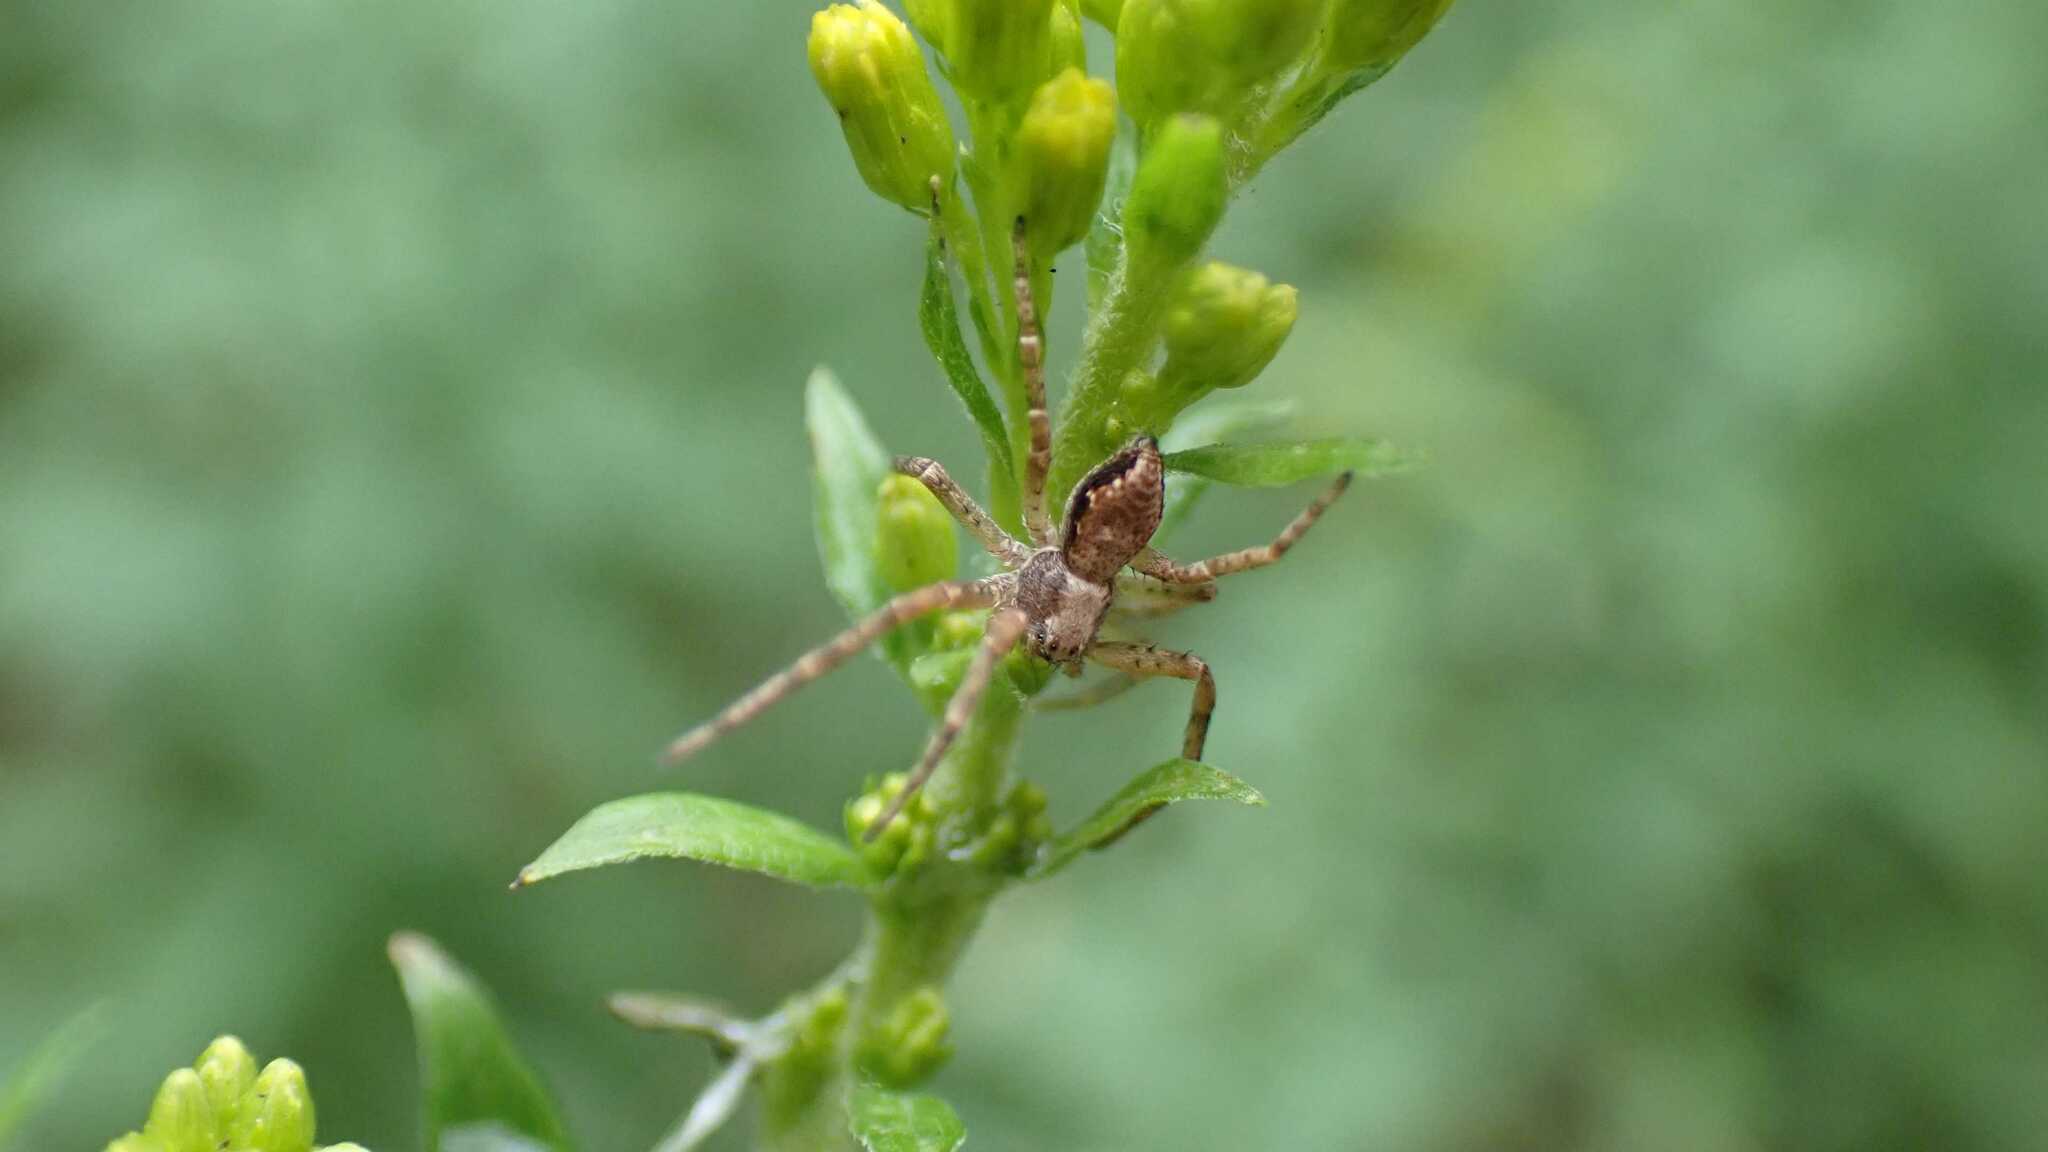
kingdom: Animalia
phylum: Arthropoda
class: Arachnida
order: Araneae
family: Philodromidae
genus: Philodromus
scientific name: Philodromus
